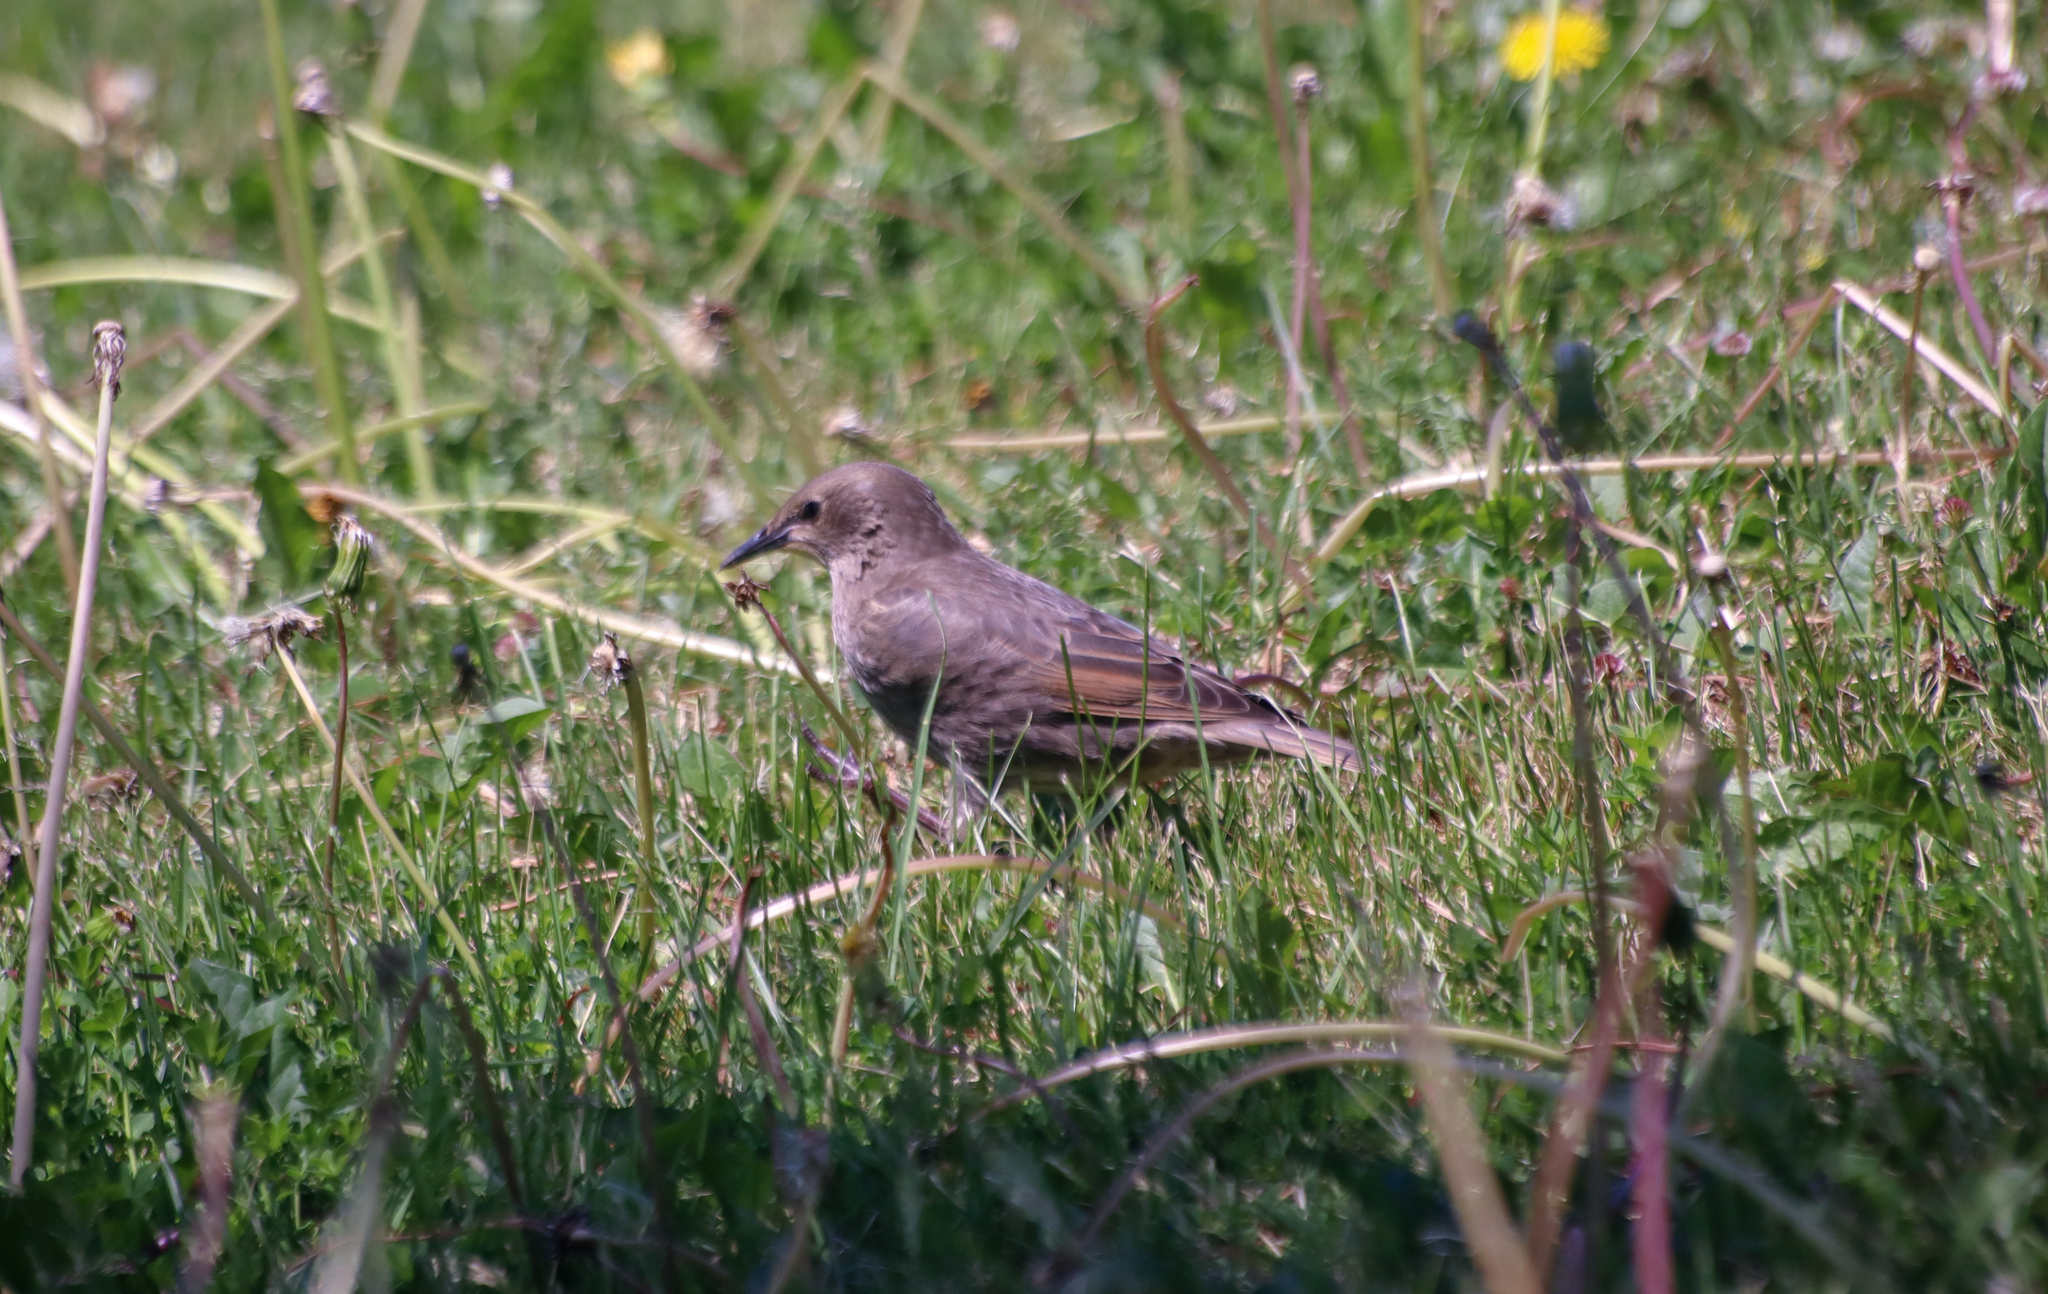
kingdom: Animalia
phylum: Chordata
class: Aves
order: Passeriformes
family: Sturnidae
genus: Sturnus
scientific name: Sturnus vulgaris
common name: Common starling
